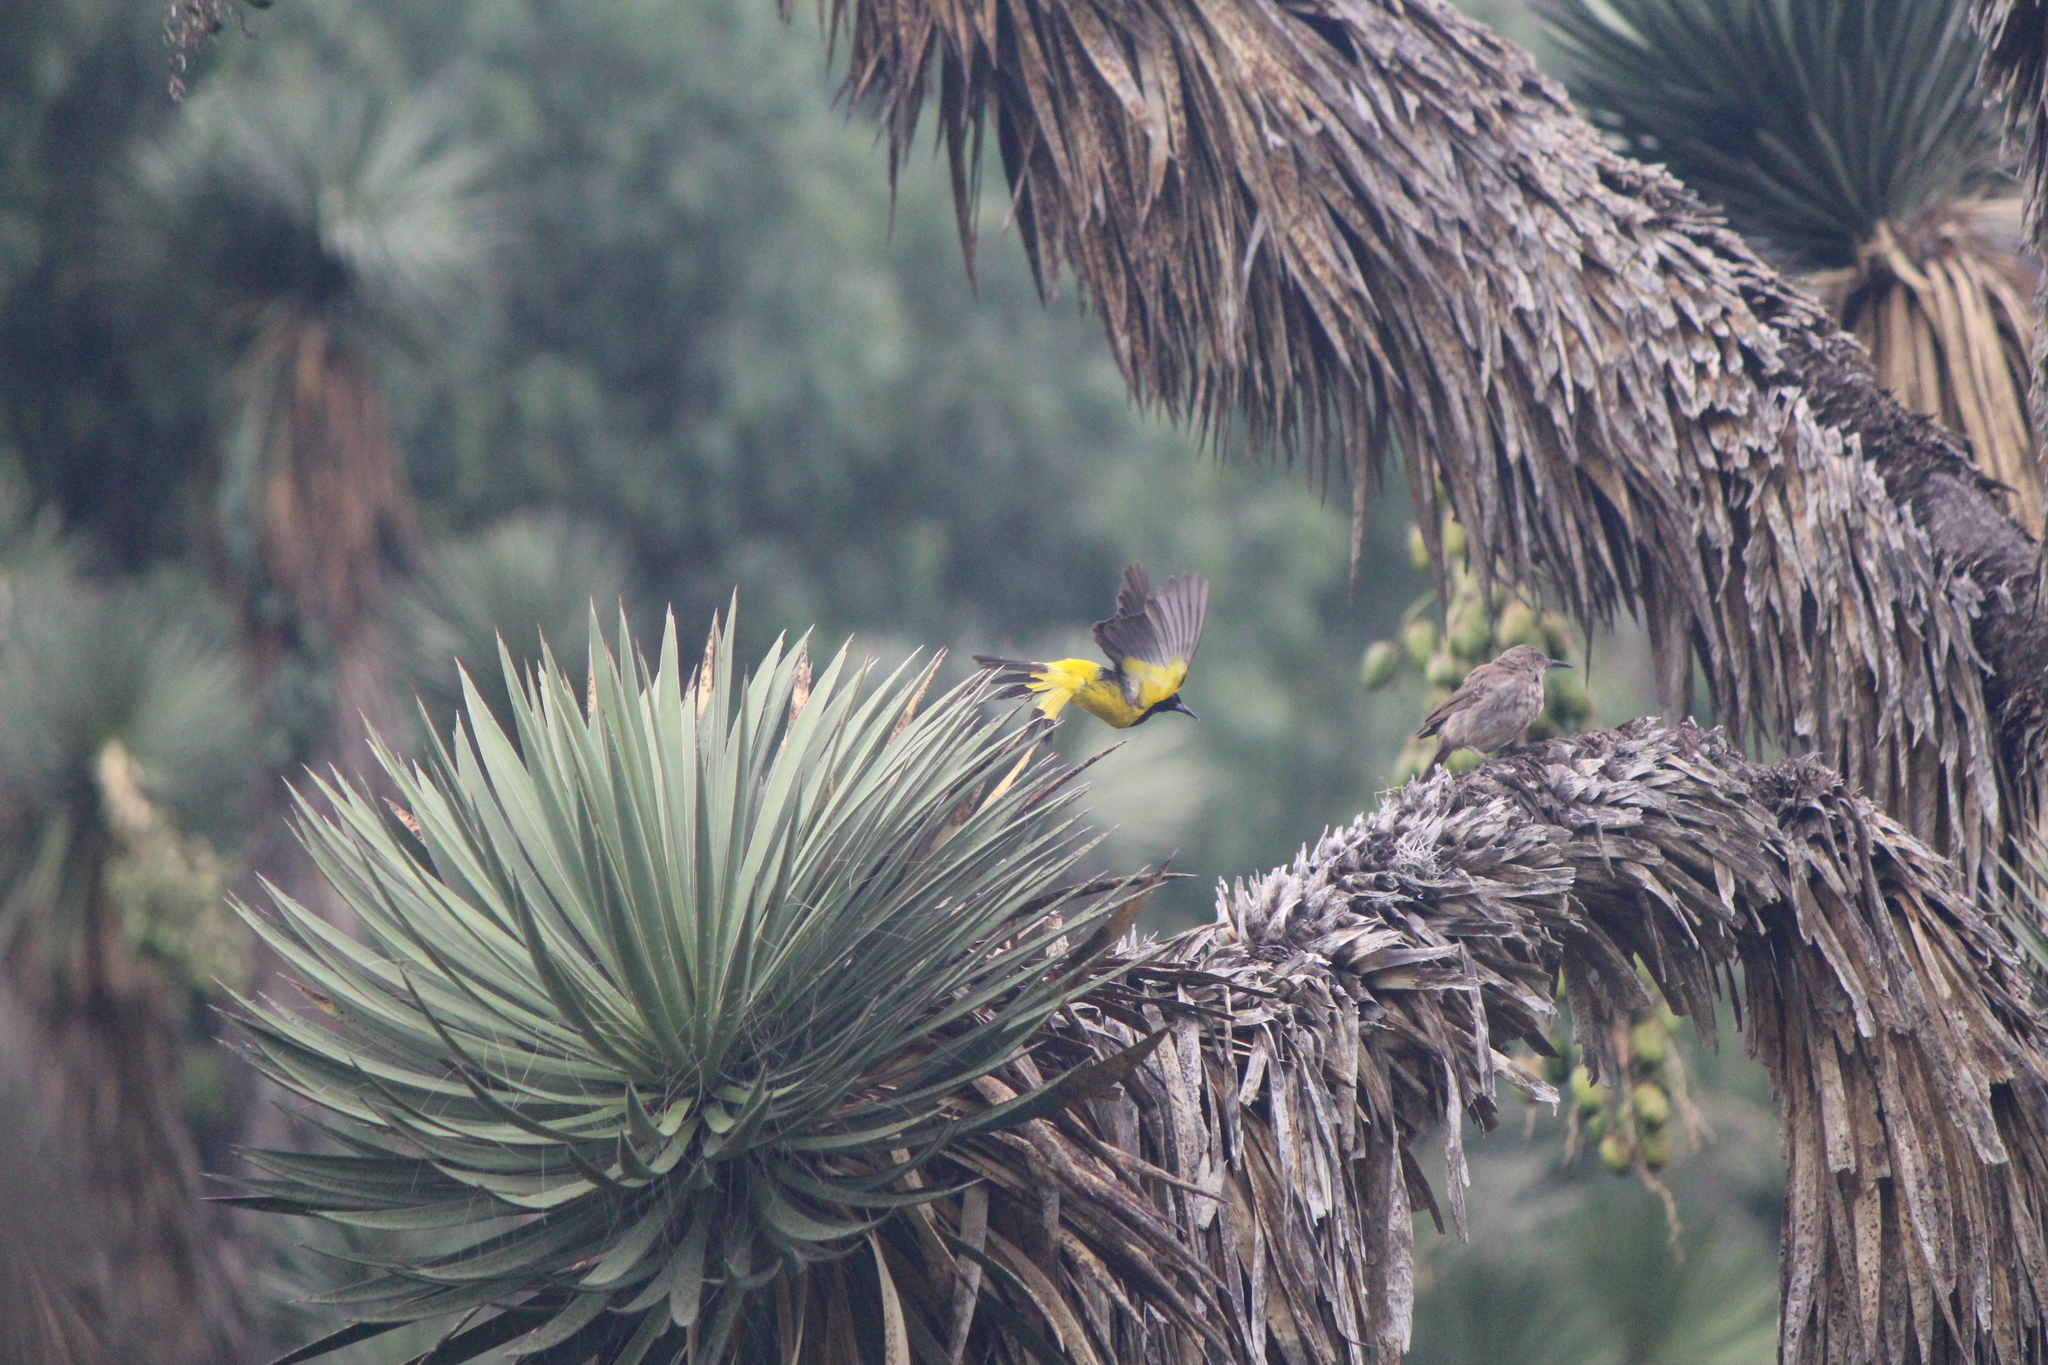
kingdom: Animalia
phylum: Chordata
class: Aves
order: Passeriformes
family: Mimidae
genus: Toxostoma
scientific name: Toxostoma curvirostre
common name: Curve-billed thrasher
